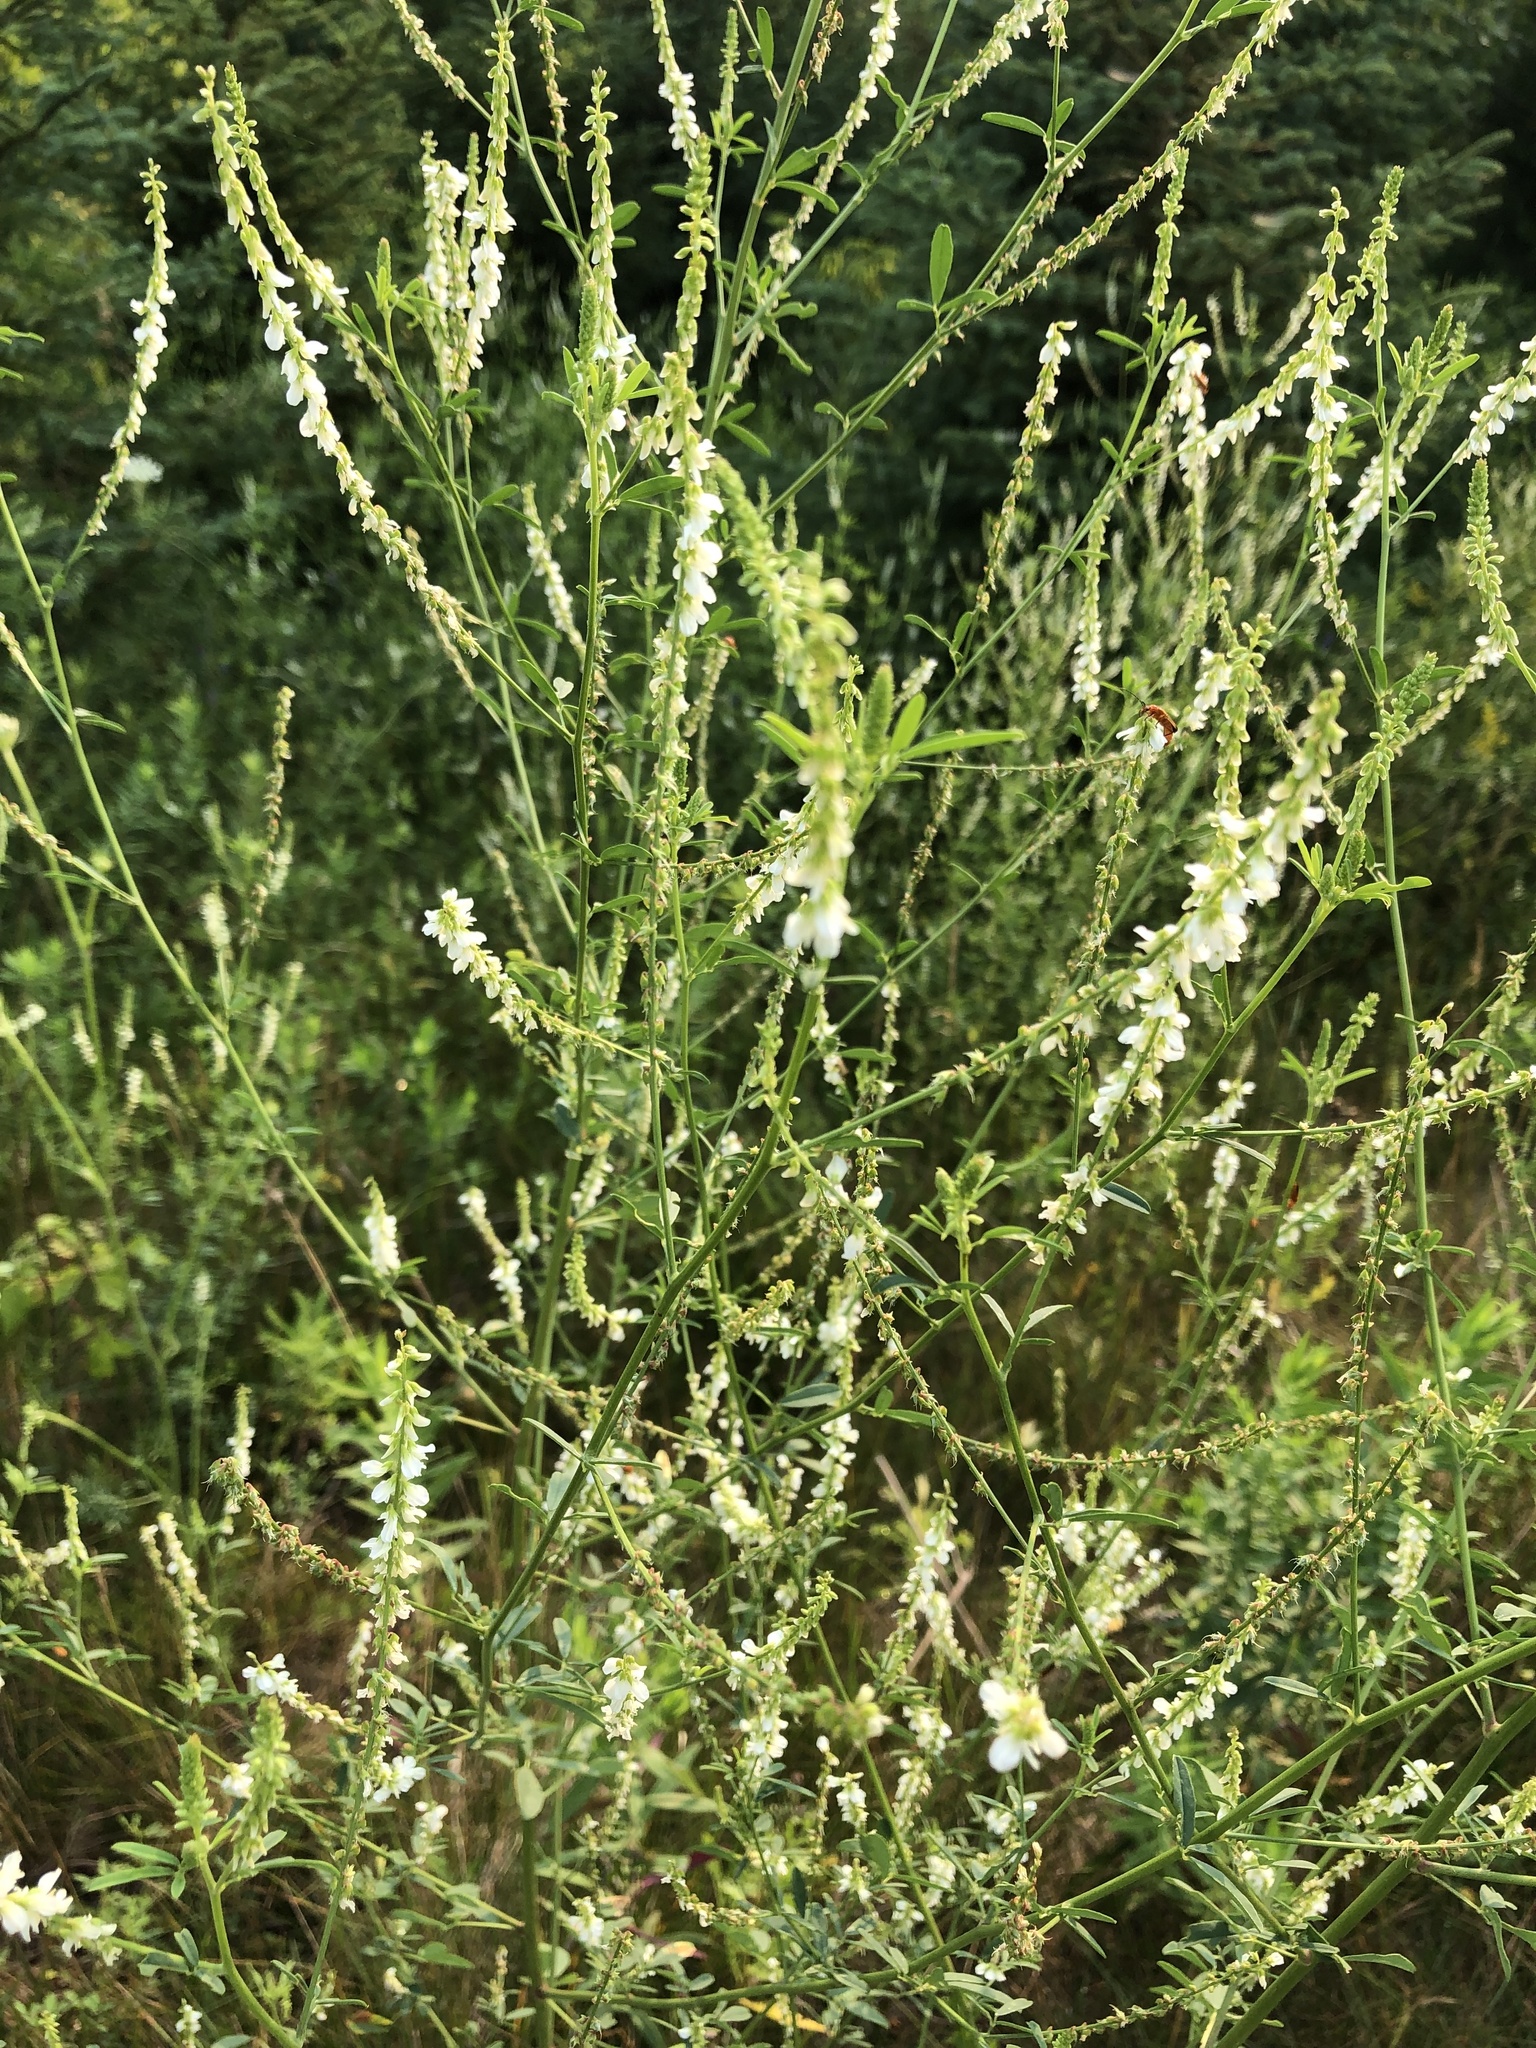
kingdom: Plantae
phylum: Tracheophyta
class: Magnoliopsida
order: Fabales
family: Fabaceae
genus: Melilotus
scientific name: Melilotus albus
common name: White melilot
